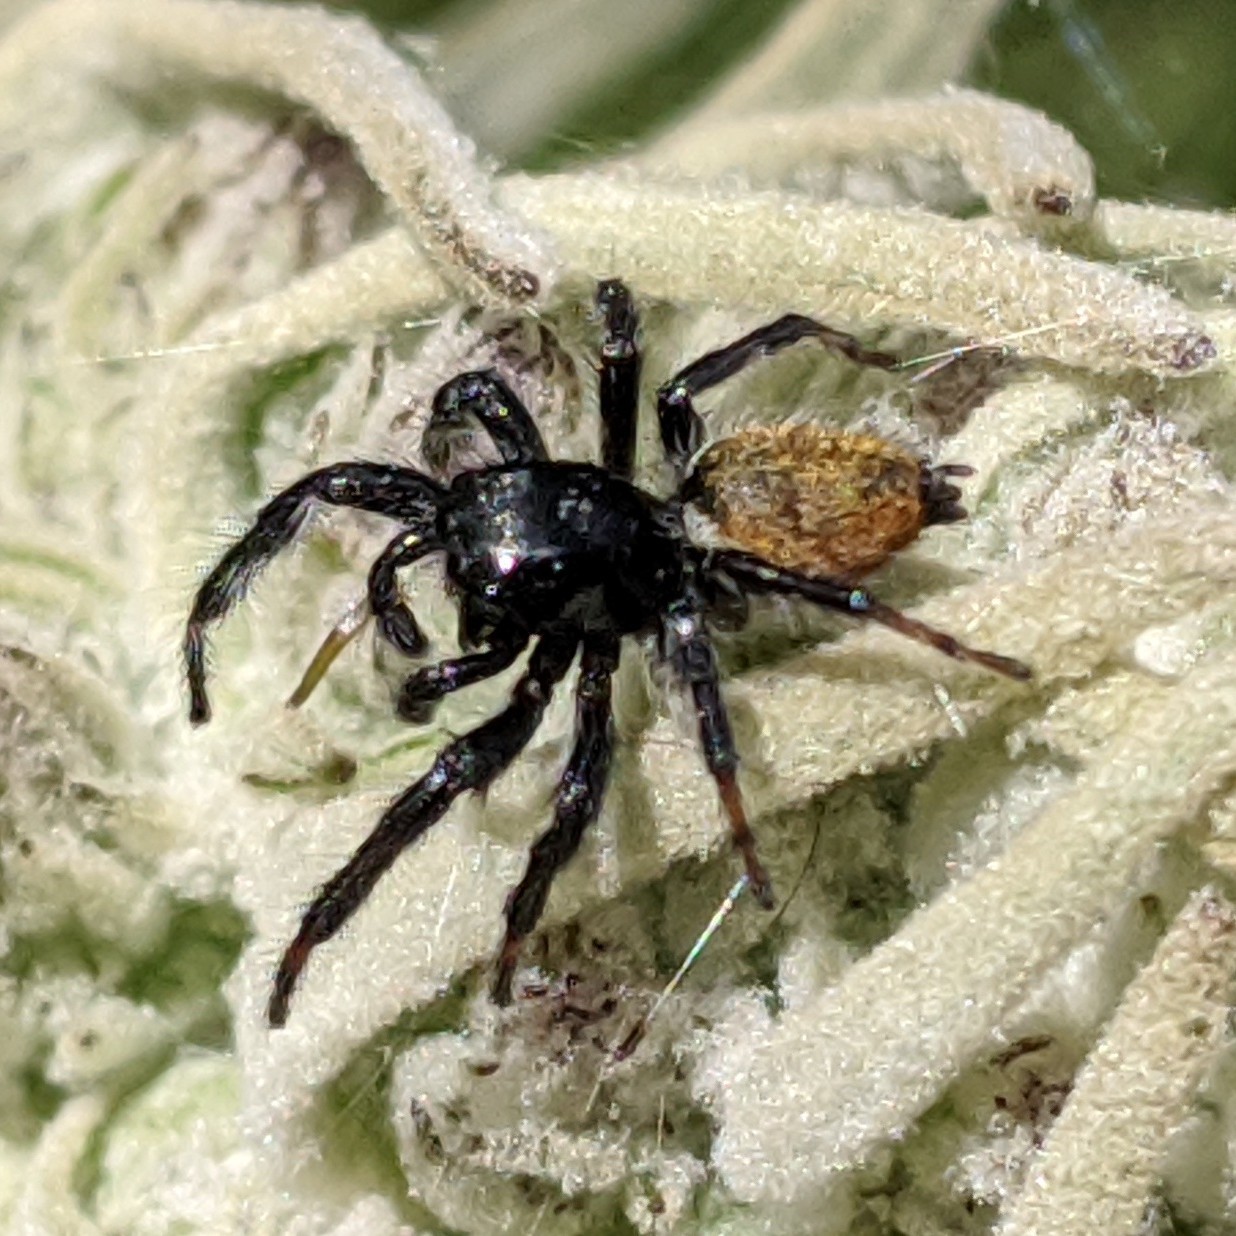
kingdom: Animalia
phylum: Arthropoda
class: Arachnida
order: Araneae
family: Salticidae
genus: Carrhotus
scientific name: Carrhotus xanthogramma
